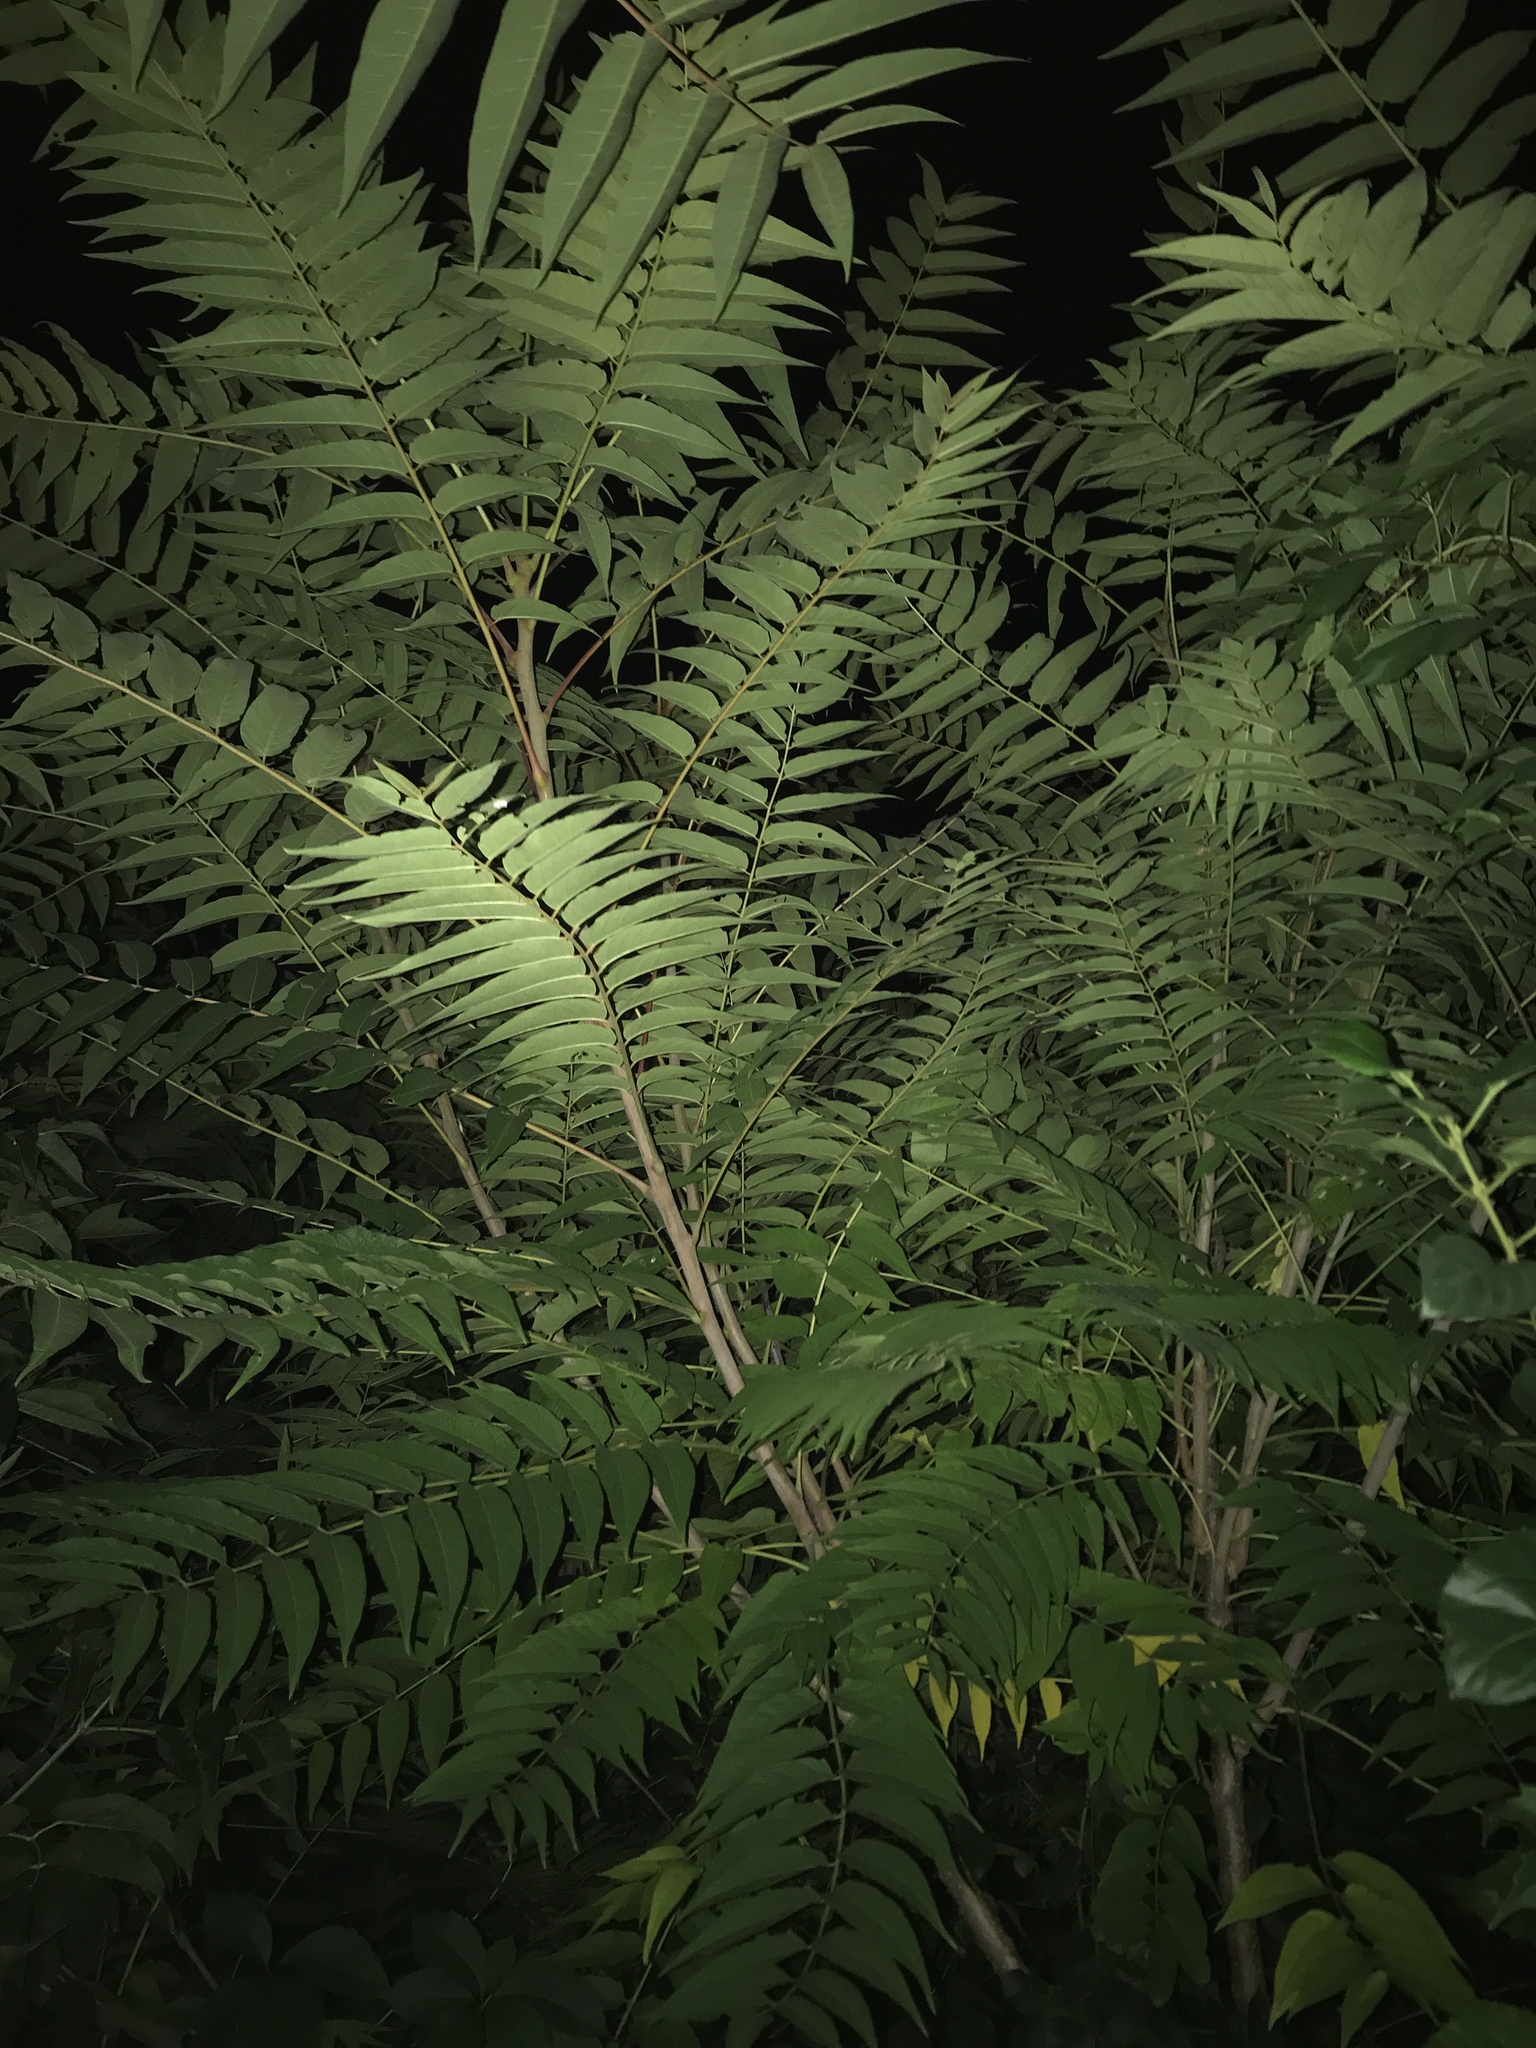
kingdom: Plantae
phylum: Tracheophyta
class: Magnoliopsida
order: Sapindales
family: Simaroubaceae
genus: Ailanthus
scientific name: Ailanthus altissima
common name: Tree-of-heaven
